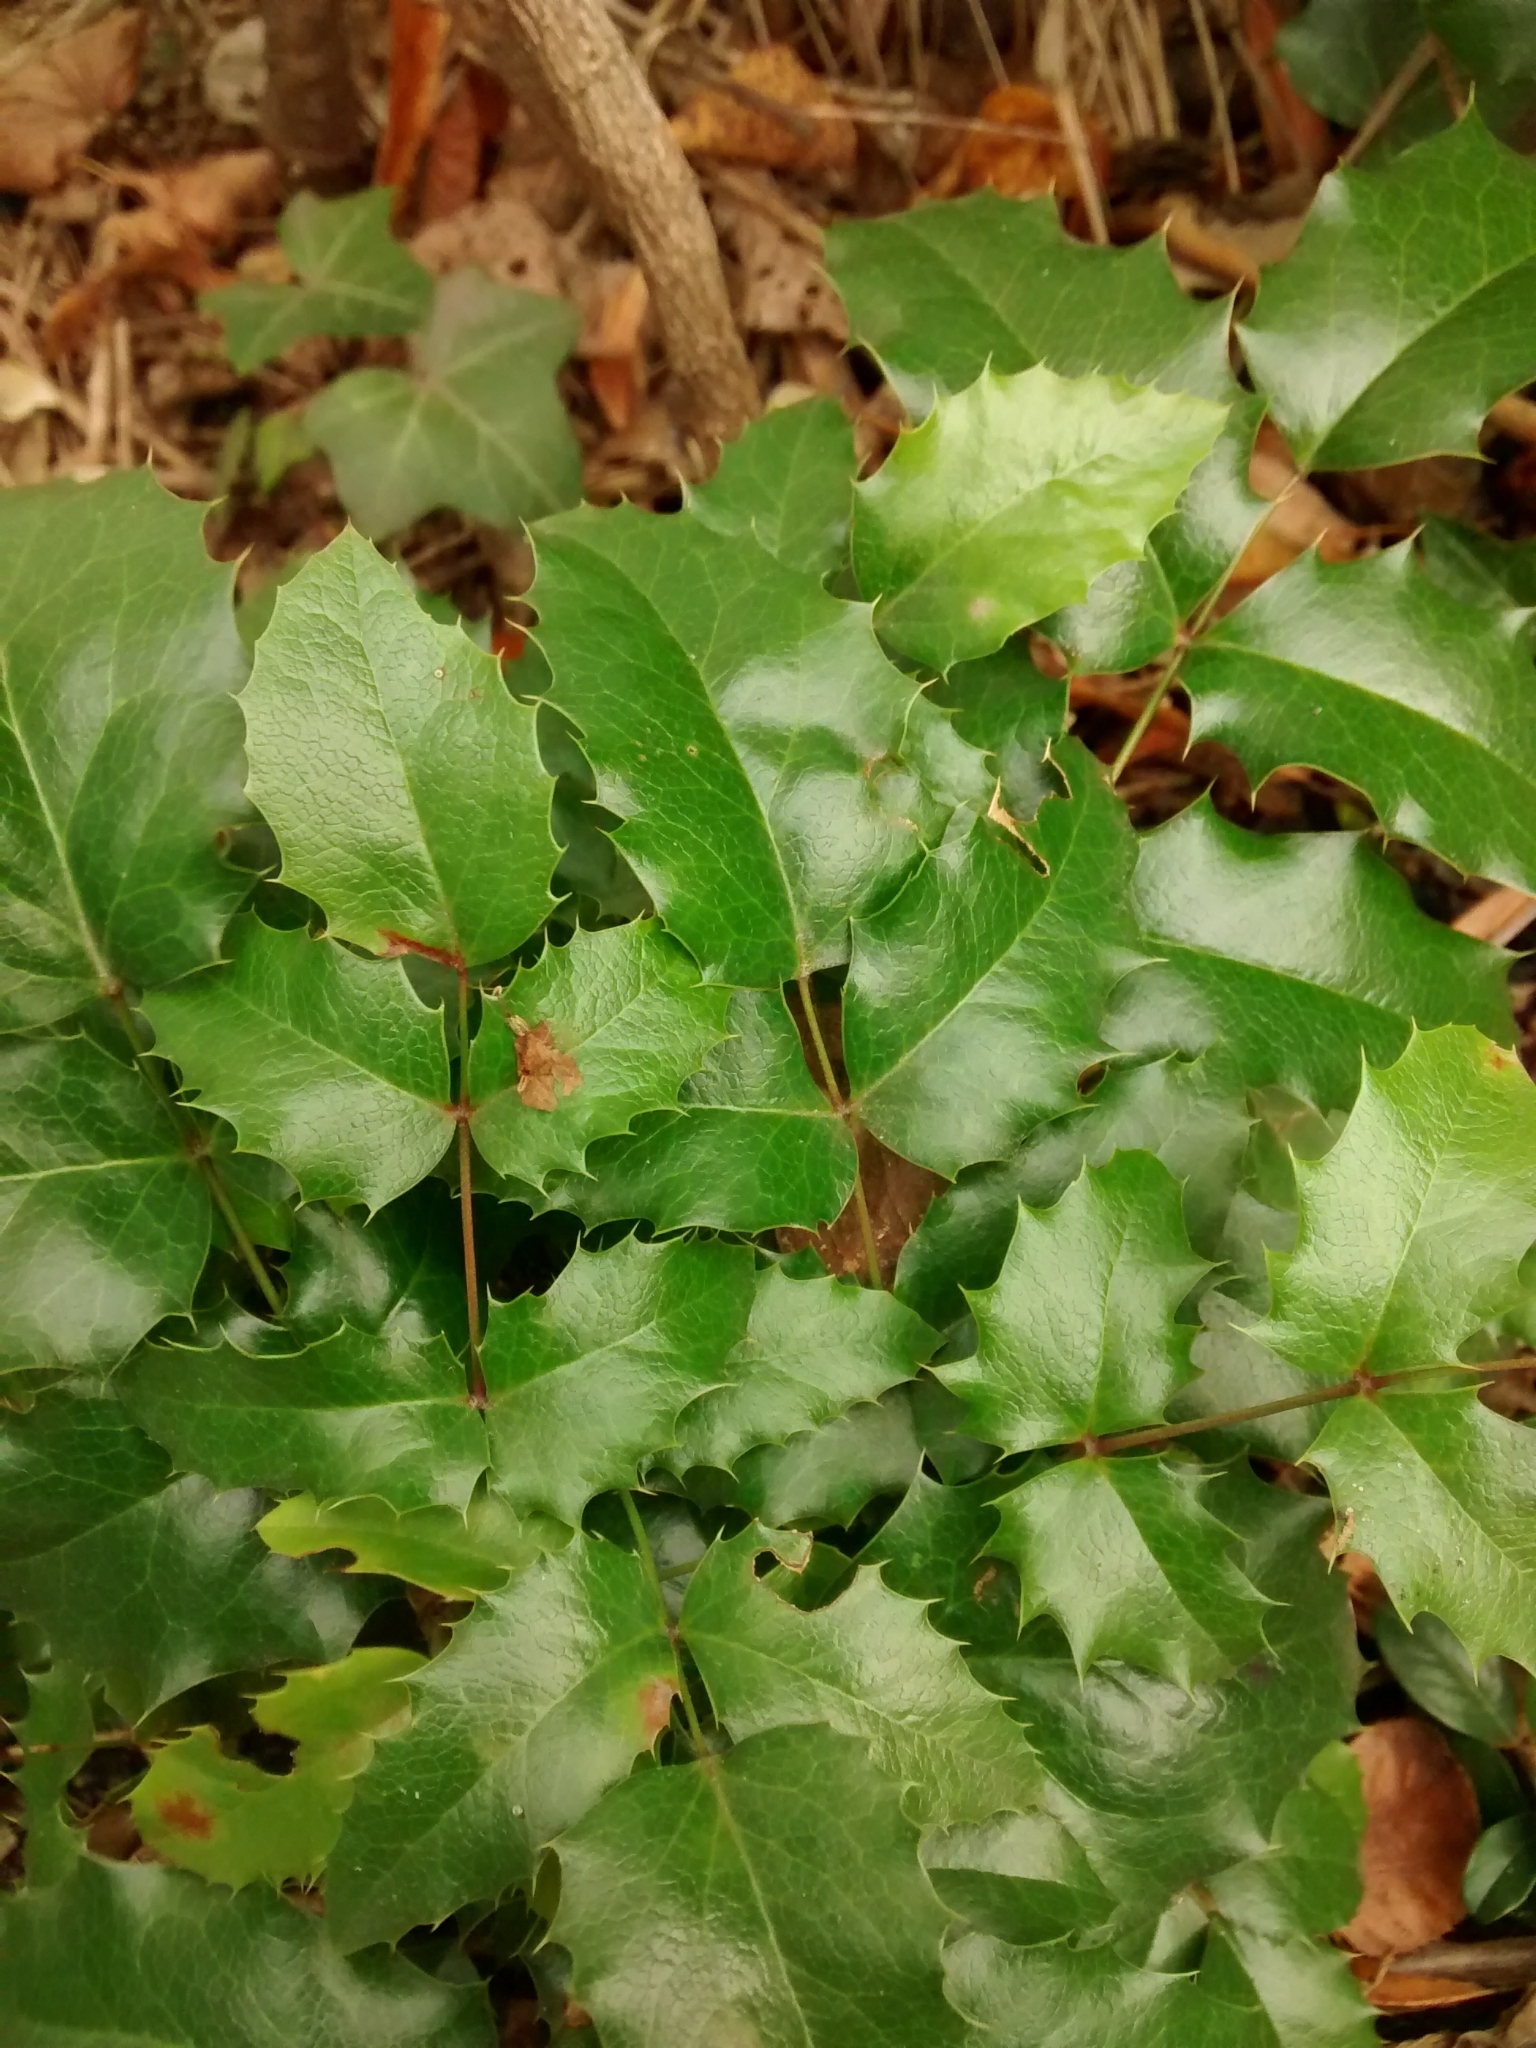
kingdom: Plantae
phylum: Tracheophyta
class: Magnoliopsida
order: Ranunculales
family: Berberidaceae
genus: Mahonia
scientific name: Mahonia aquifolium
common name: Oregon-grape
